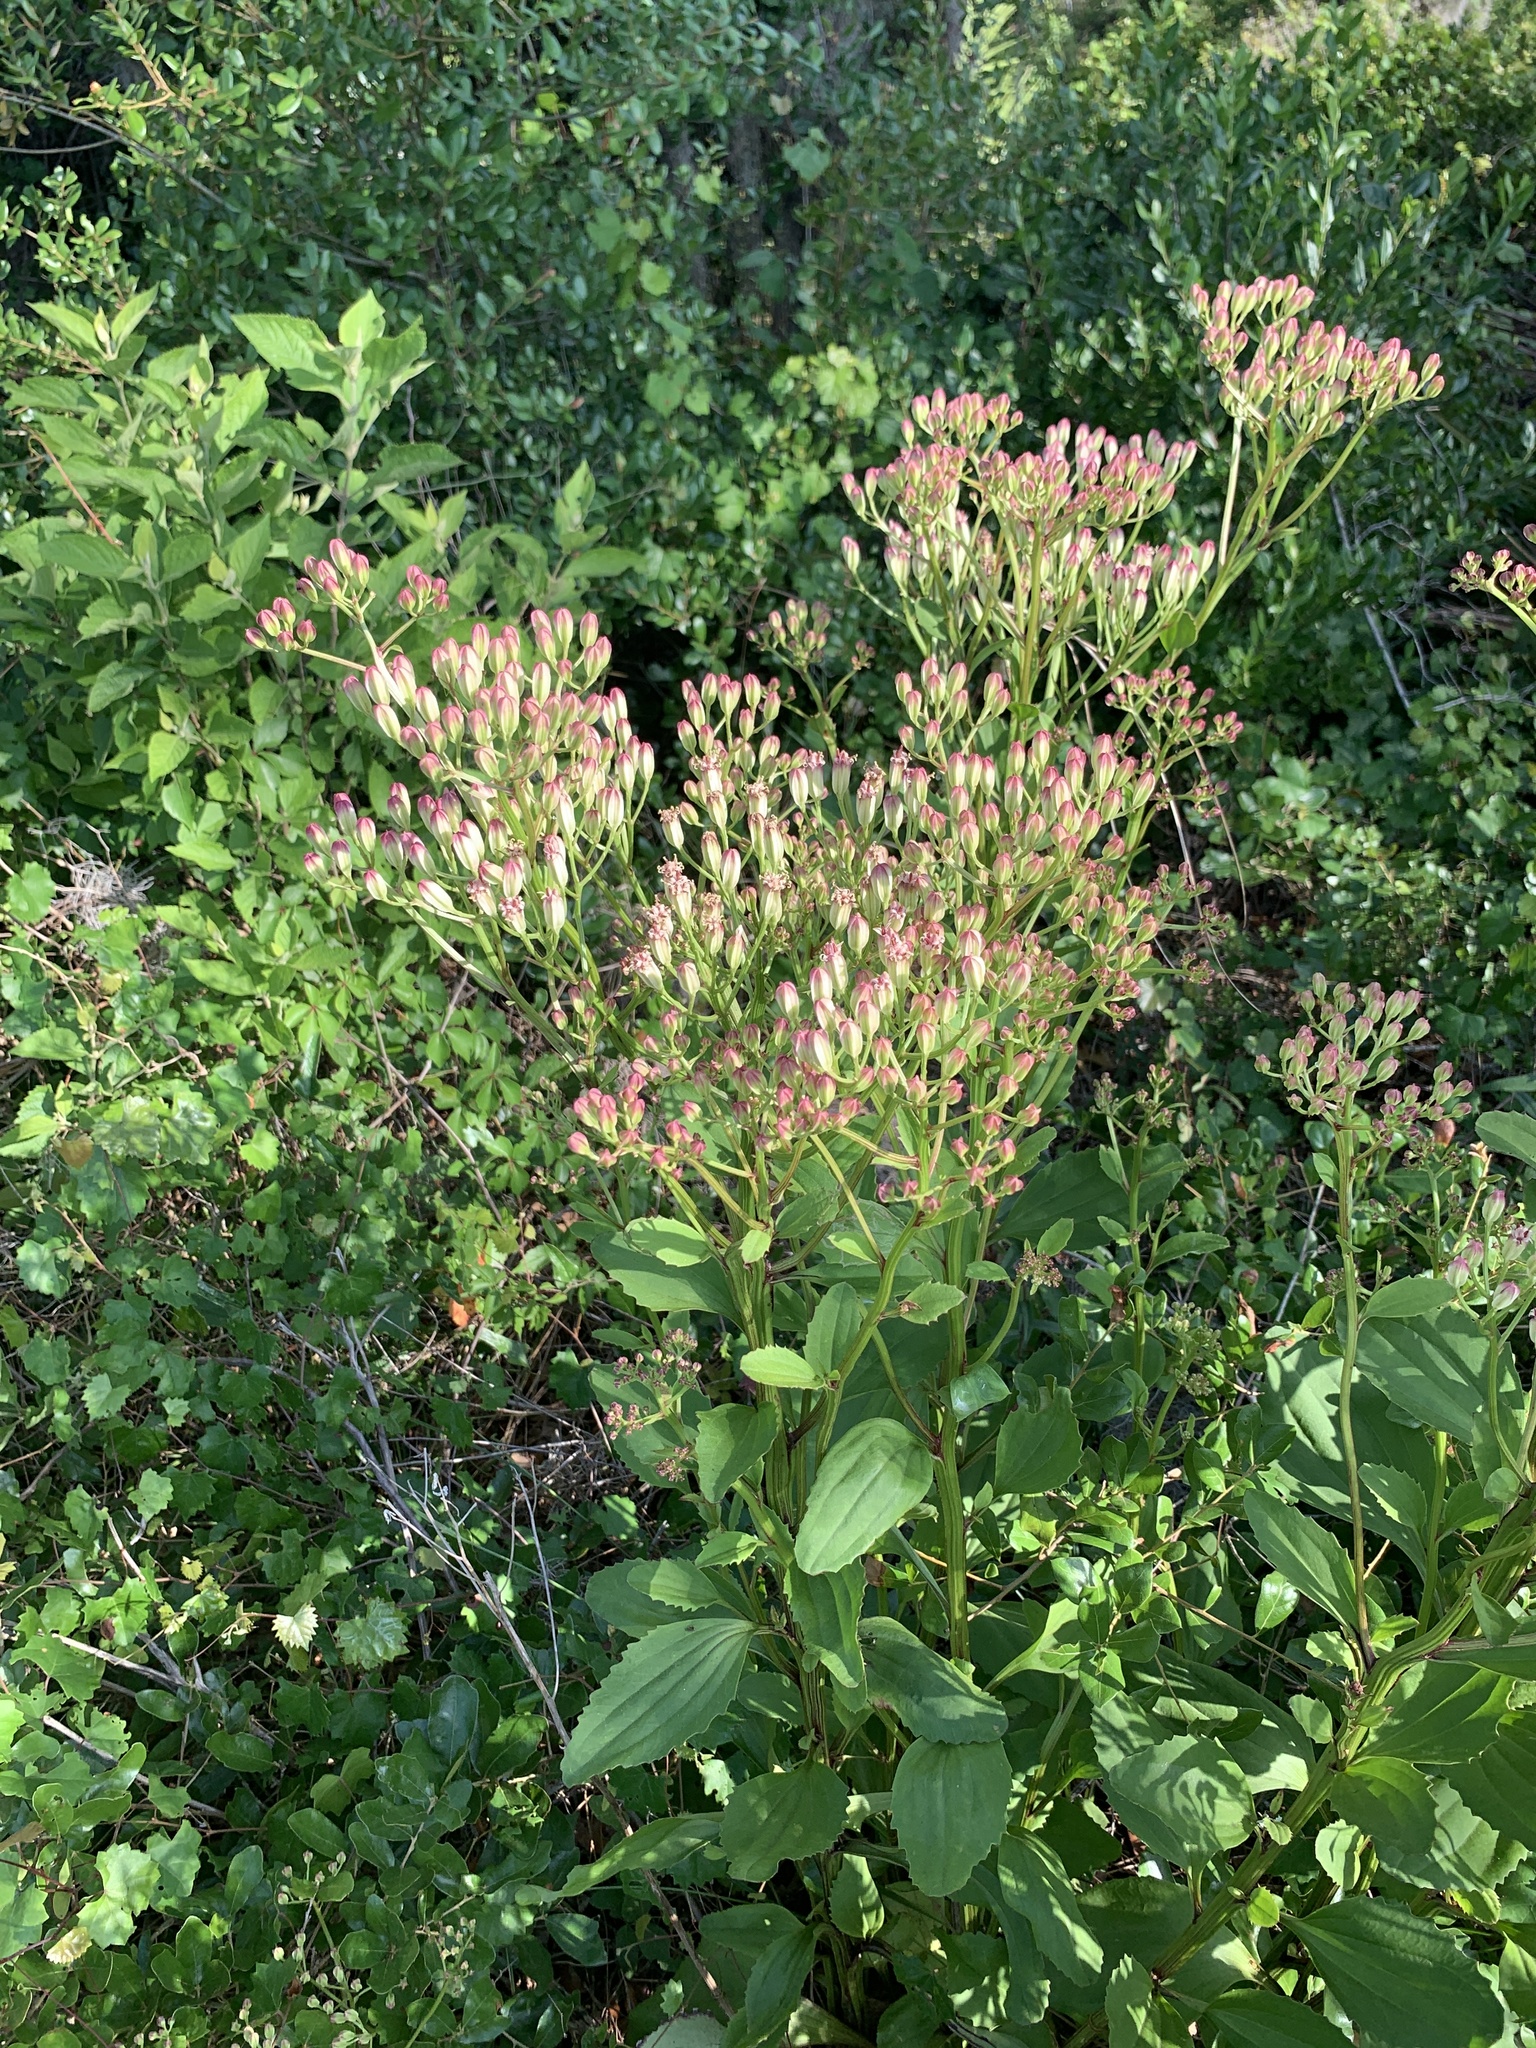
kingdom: Plantae
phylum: Tracheophyta
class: Magnoliopsida
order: Asterales
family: Asteraceae
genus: Arnoglossum
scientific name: Arnoglossum floridanum
